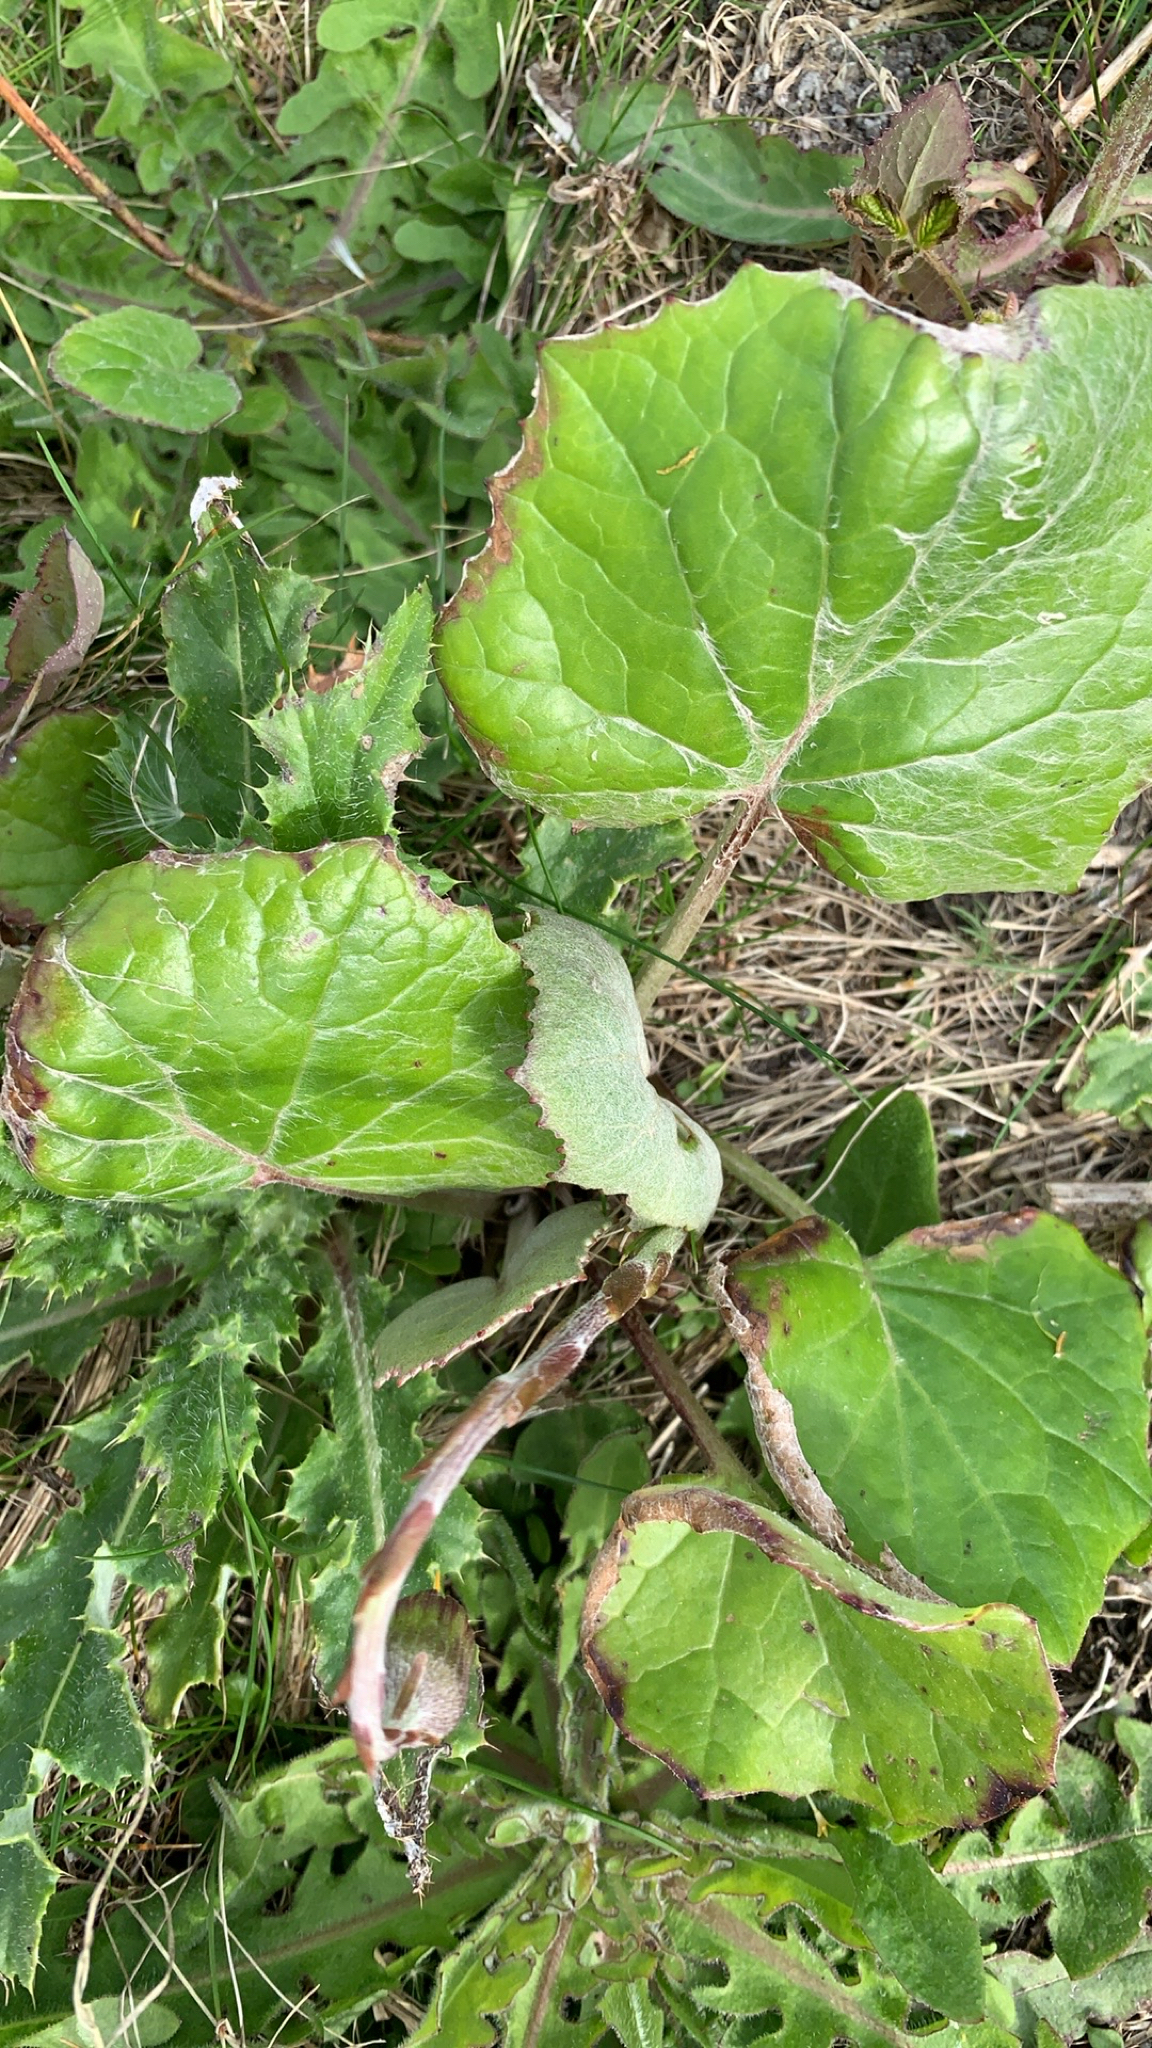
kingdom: Plantae
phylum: Tracheophyta
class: Magnoliopsida
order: Asterales
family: Asteraceae
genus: Tussilago
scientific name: Tussilago farfara
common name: Coltsfoot
